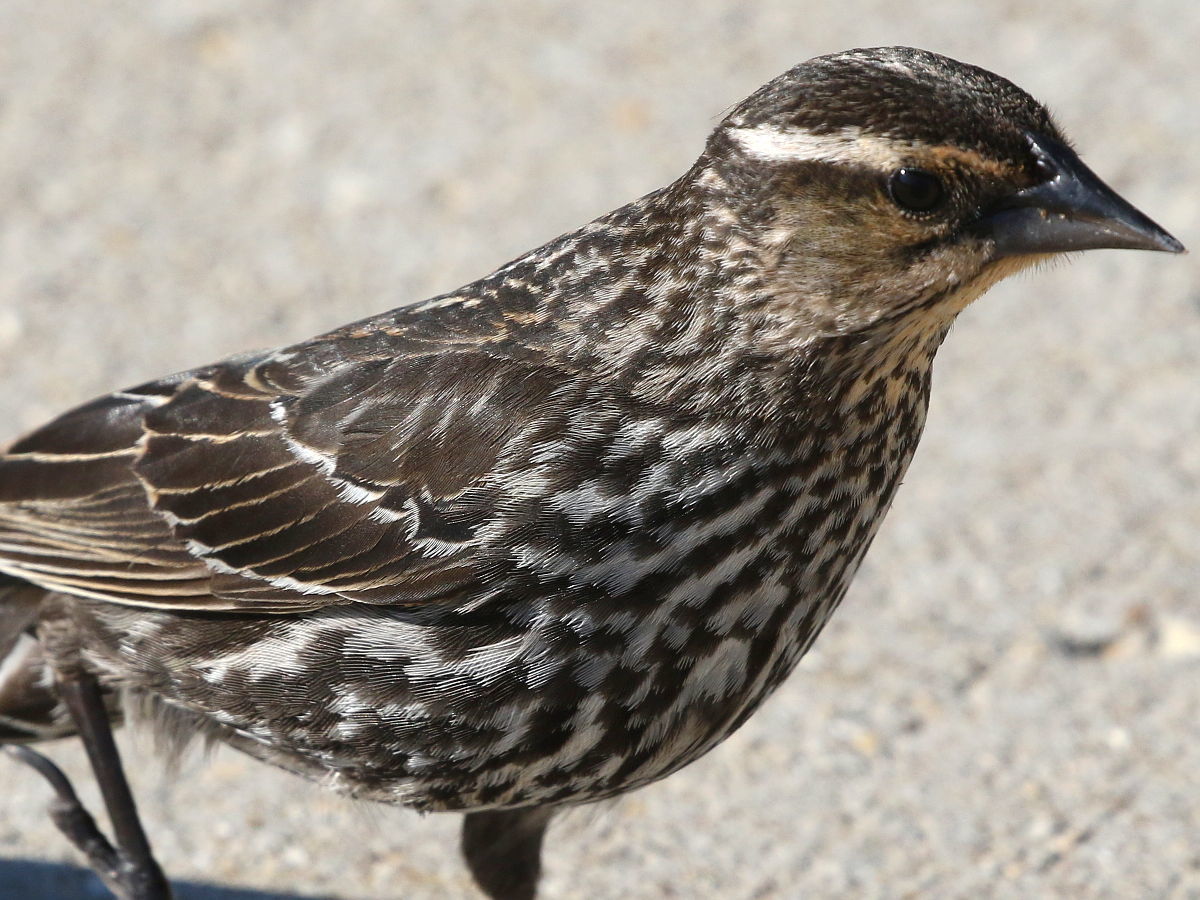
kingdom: Animalia
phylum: Chordata
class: Aves
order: Passeriformes
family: Icteridae
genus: Agelaius
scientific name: Agelaius phoeniceus
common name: Red-winged blackbird
